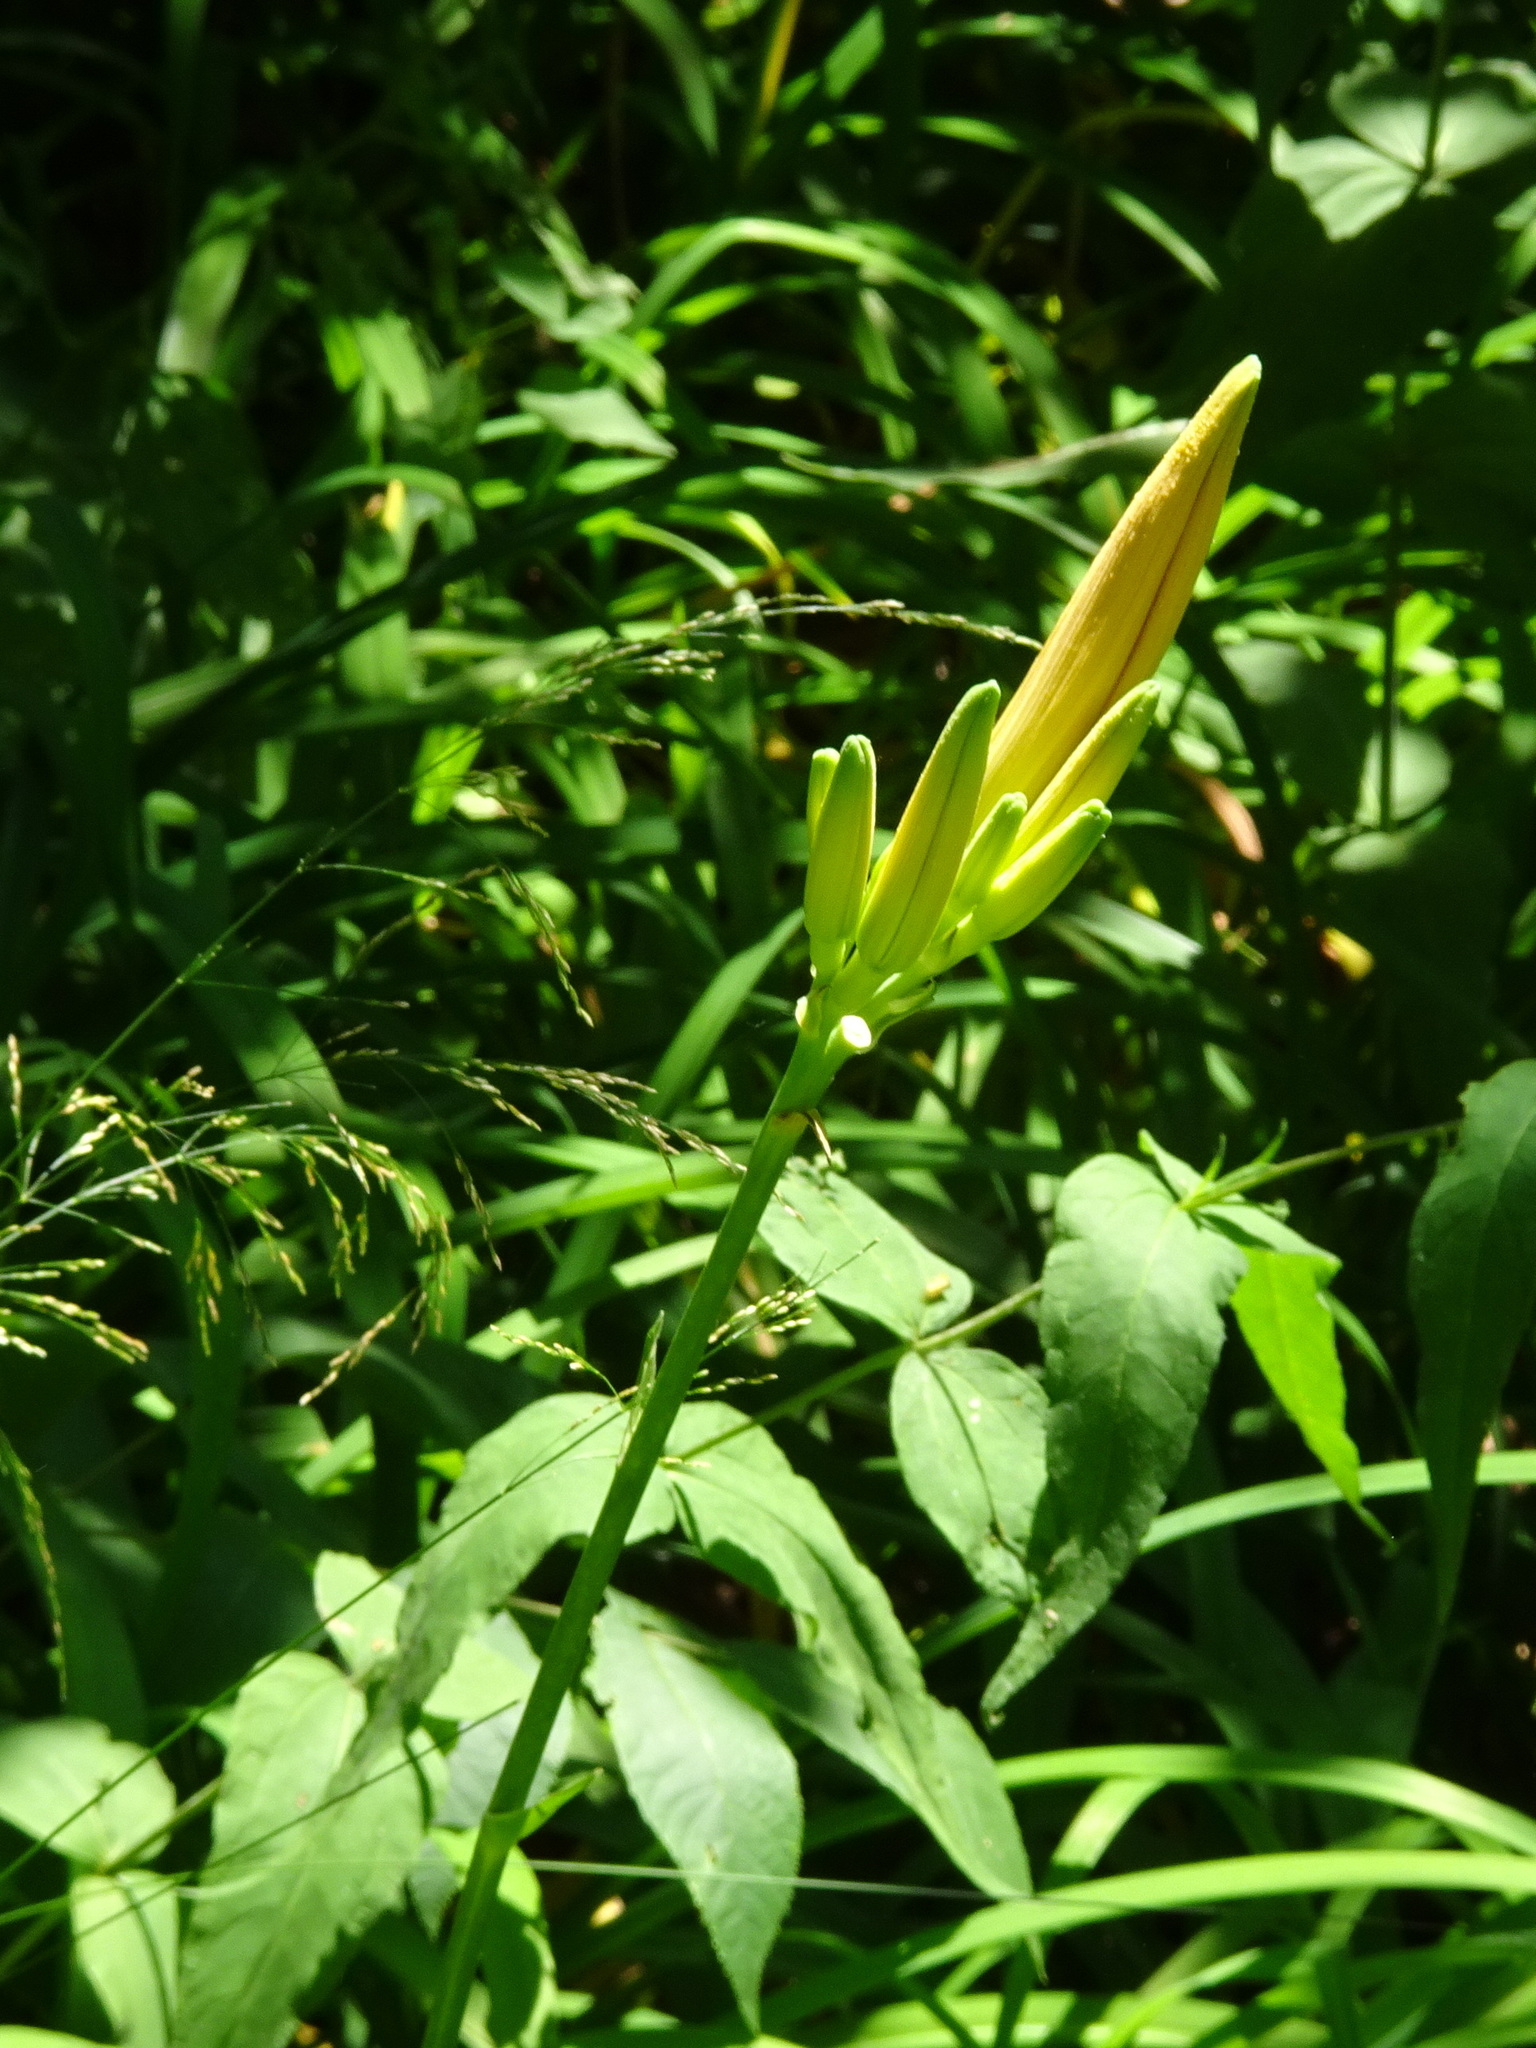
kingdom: Plantae
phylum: Tracheophyta
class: Liliopsida
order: Asparagales
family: Asphodelaceae
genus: Hemerocallis
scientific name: Hemerocallis fulva
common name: Orange day-lily
